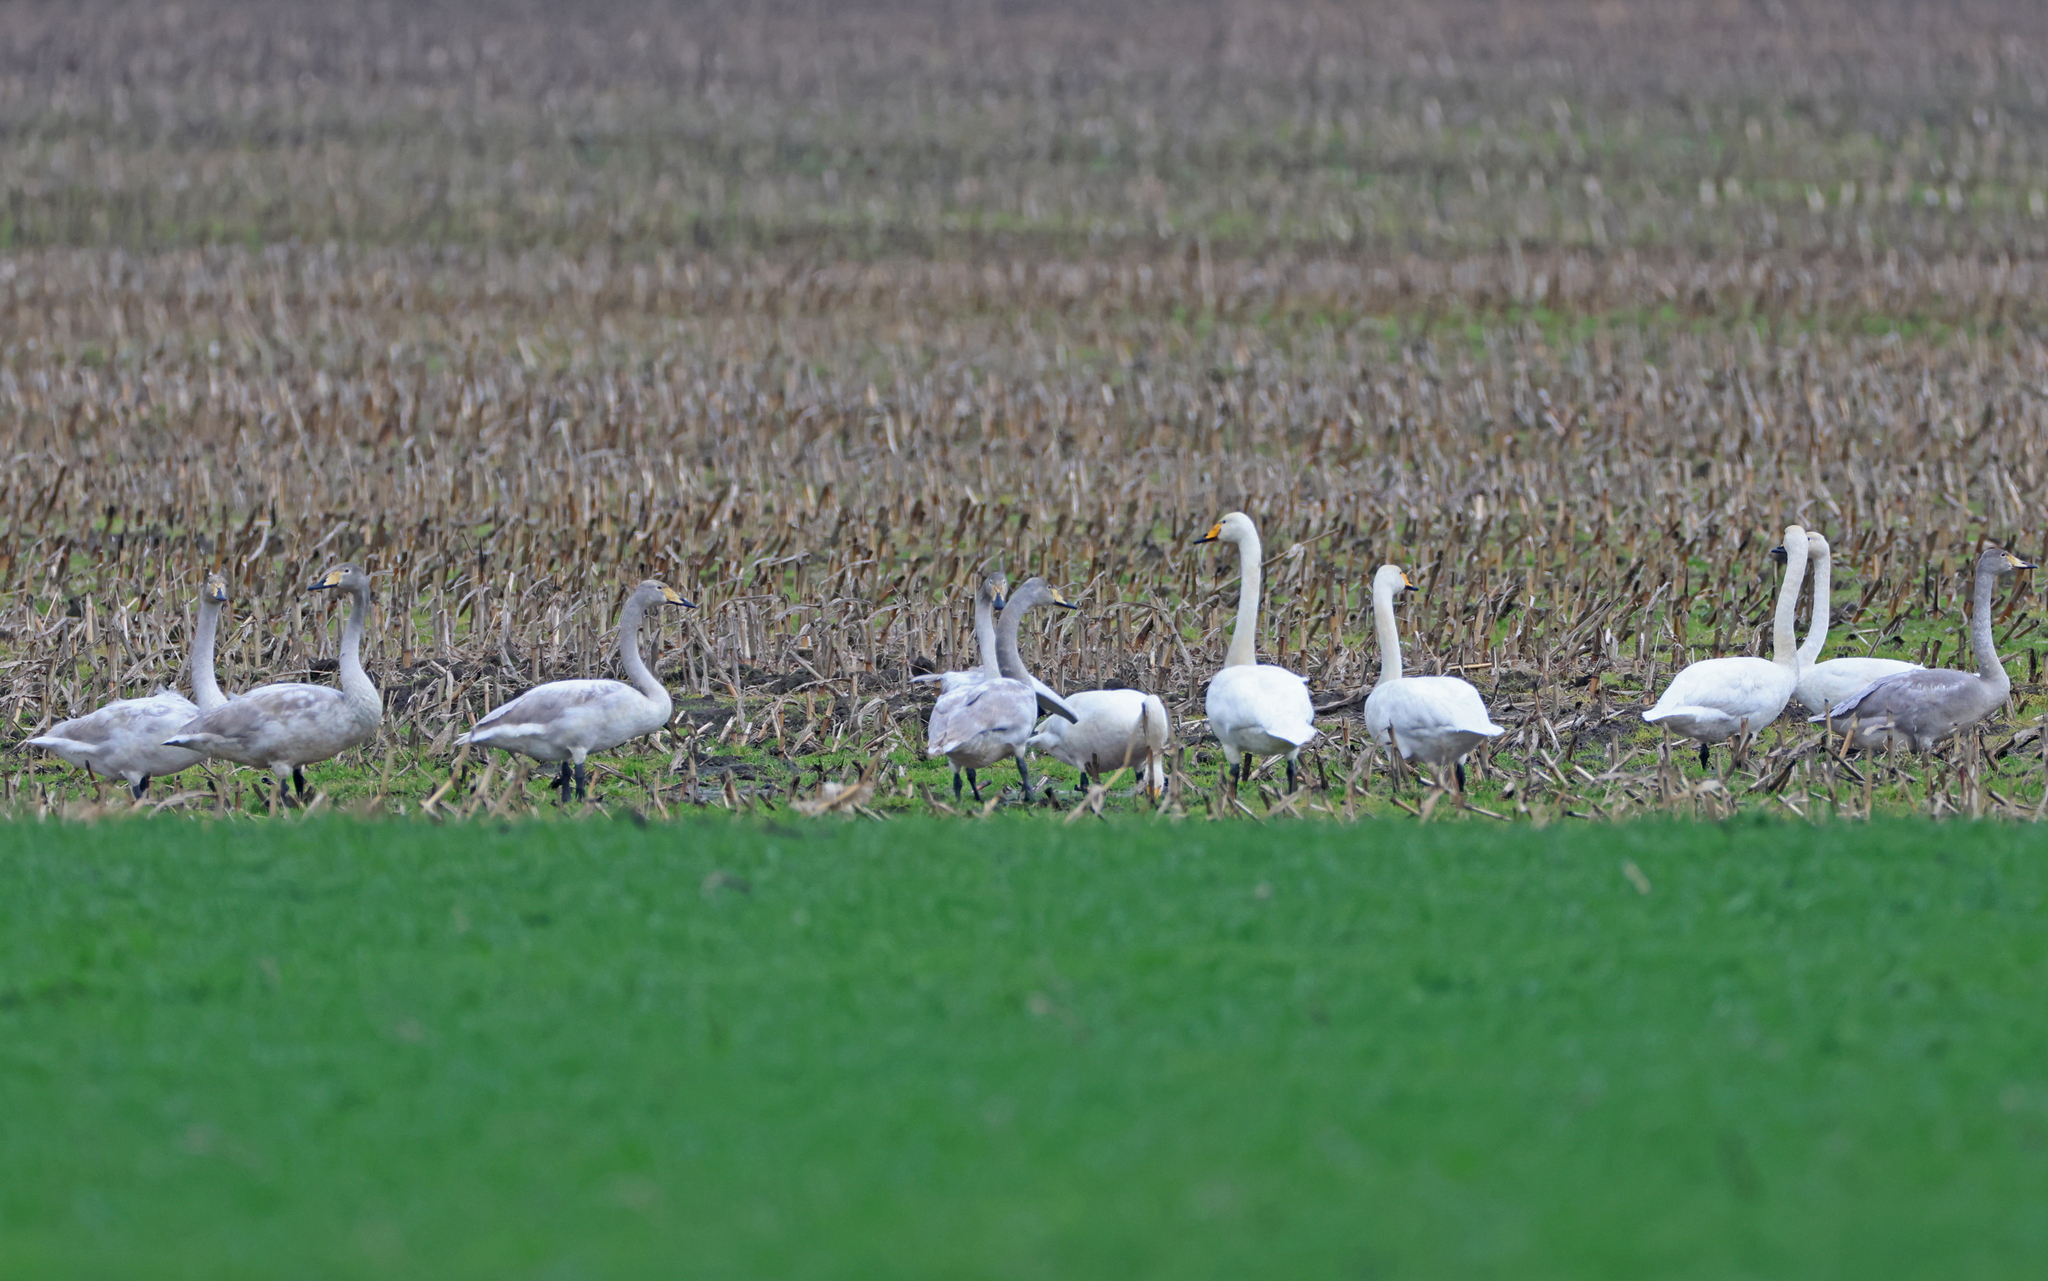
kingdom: Animalia
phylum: Chordata
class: Aves
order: Anseriformes
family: Anatidae
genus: Cygnus
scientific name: Cygnus cygnus
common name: Whooper swan
